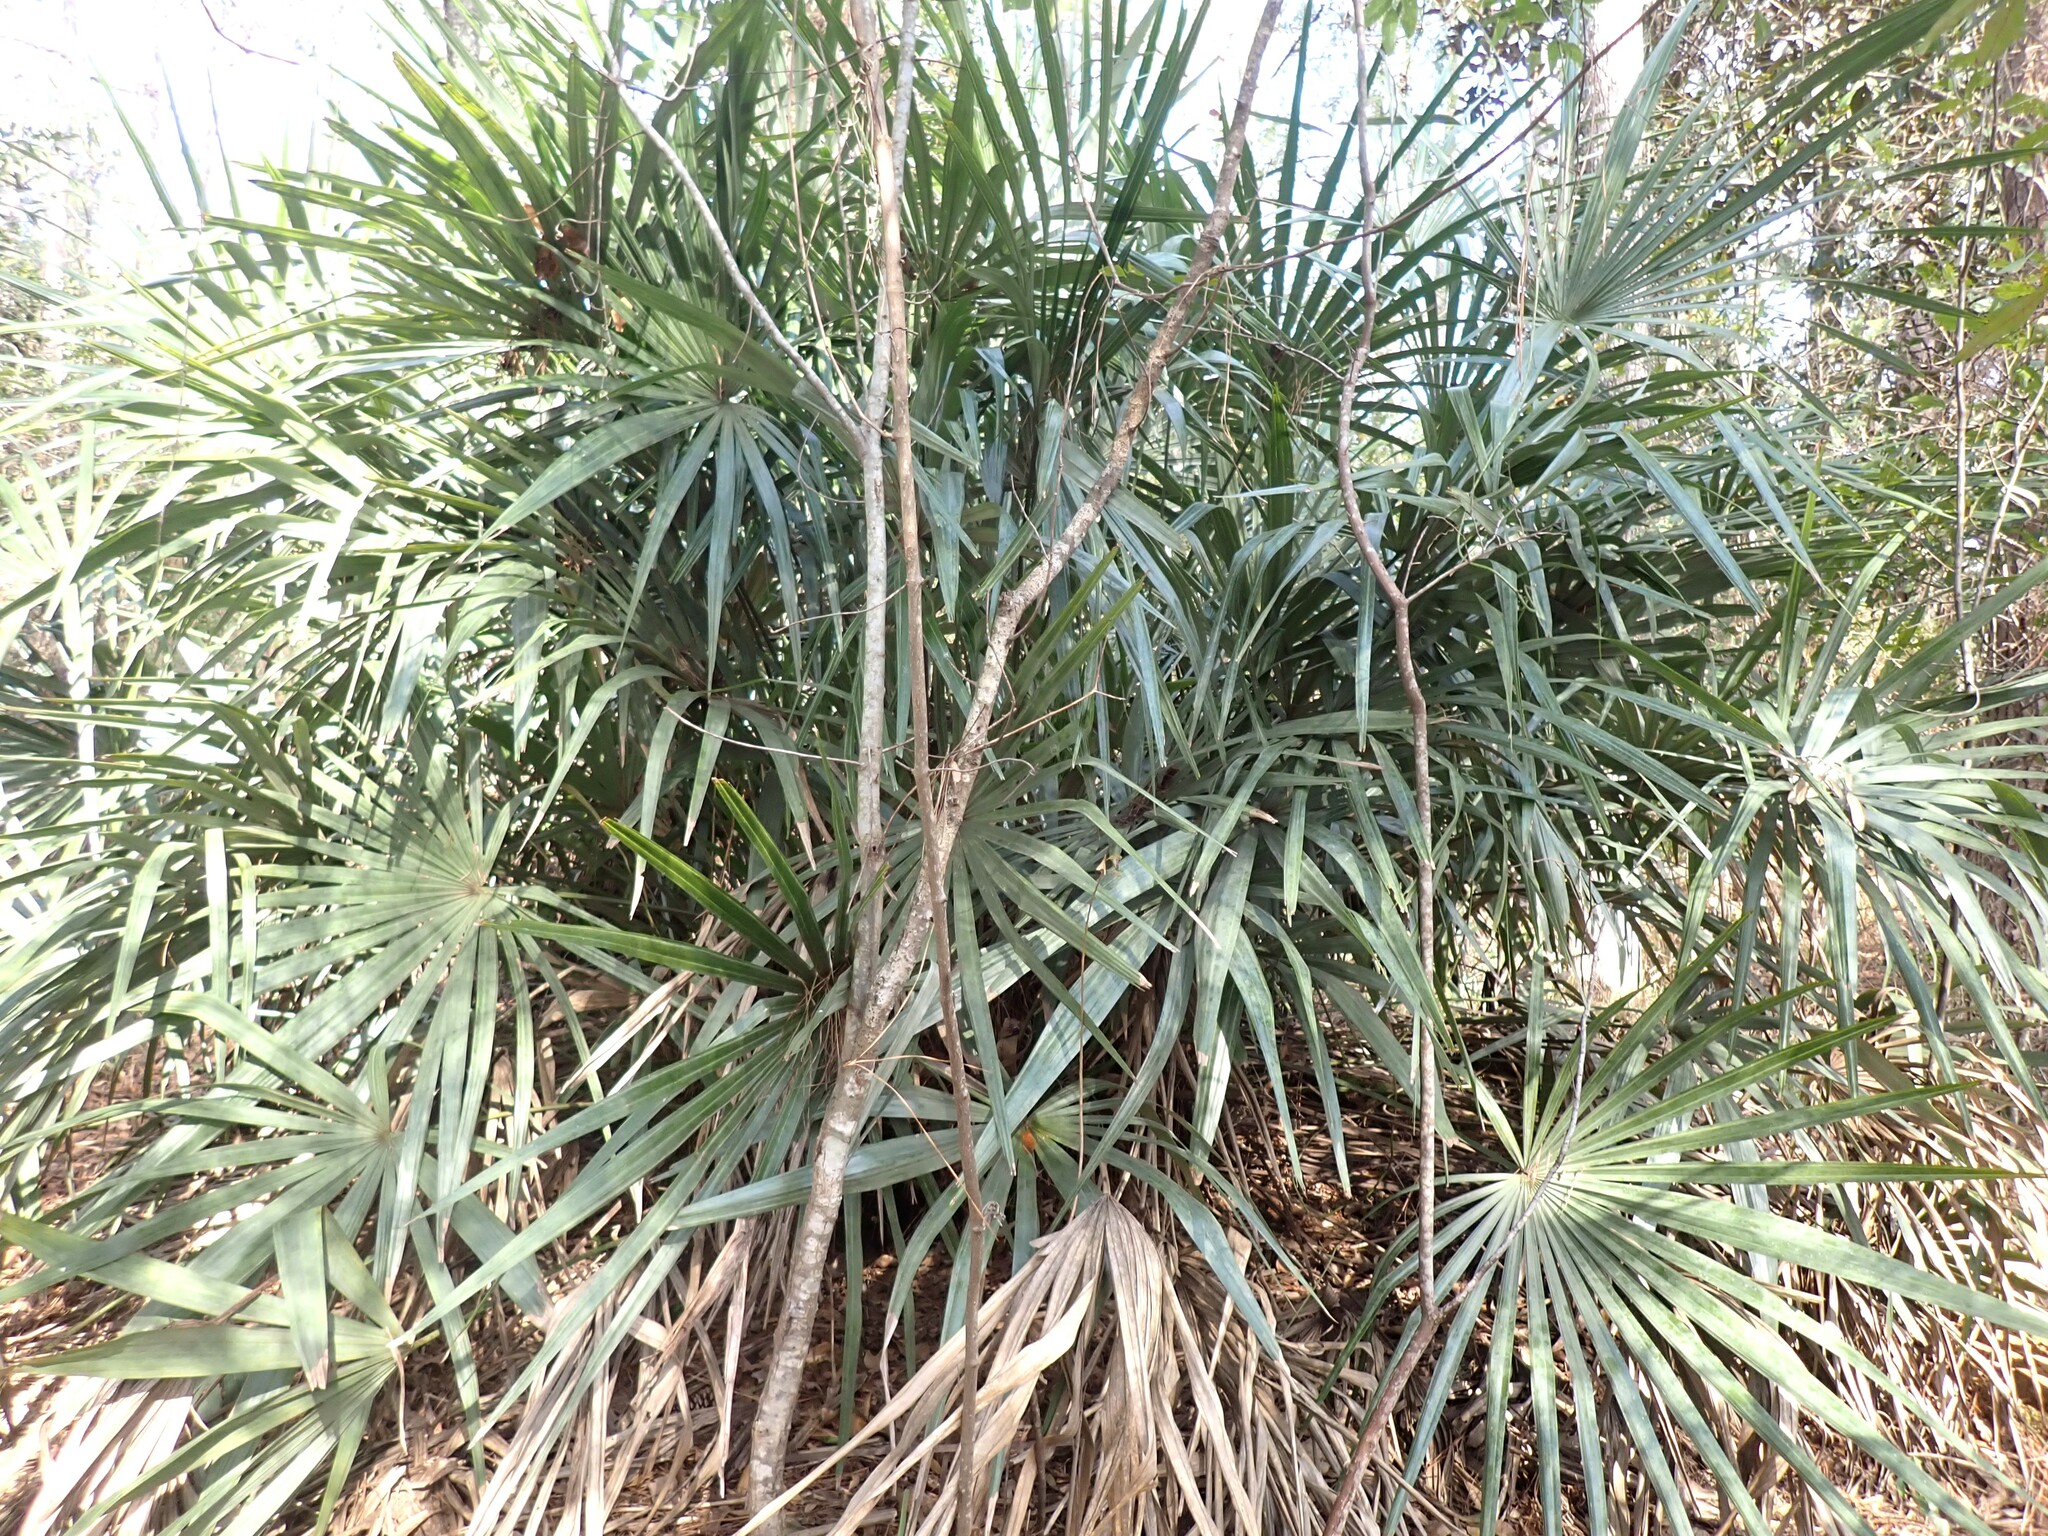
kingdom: Plantae
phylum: Tracheophyta
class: Liliopsida
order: Arecales
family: Arecaceae
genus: Rhapidophyllum
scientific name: Rhapidophyllum hystrix
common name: Porcupine palm
